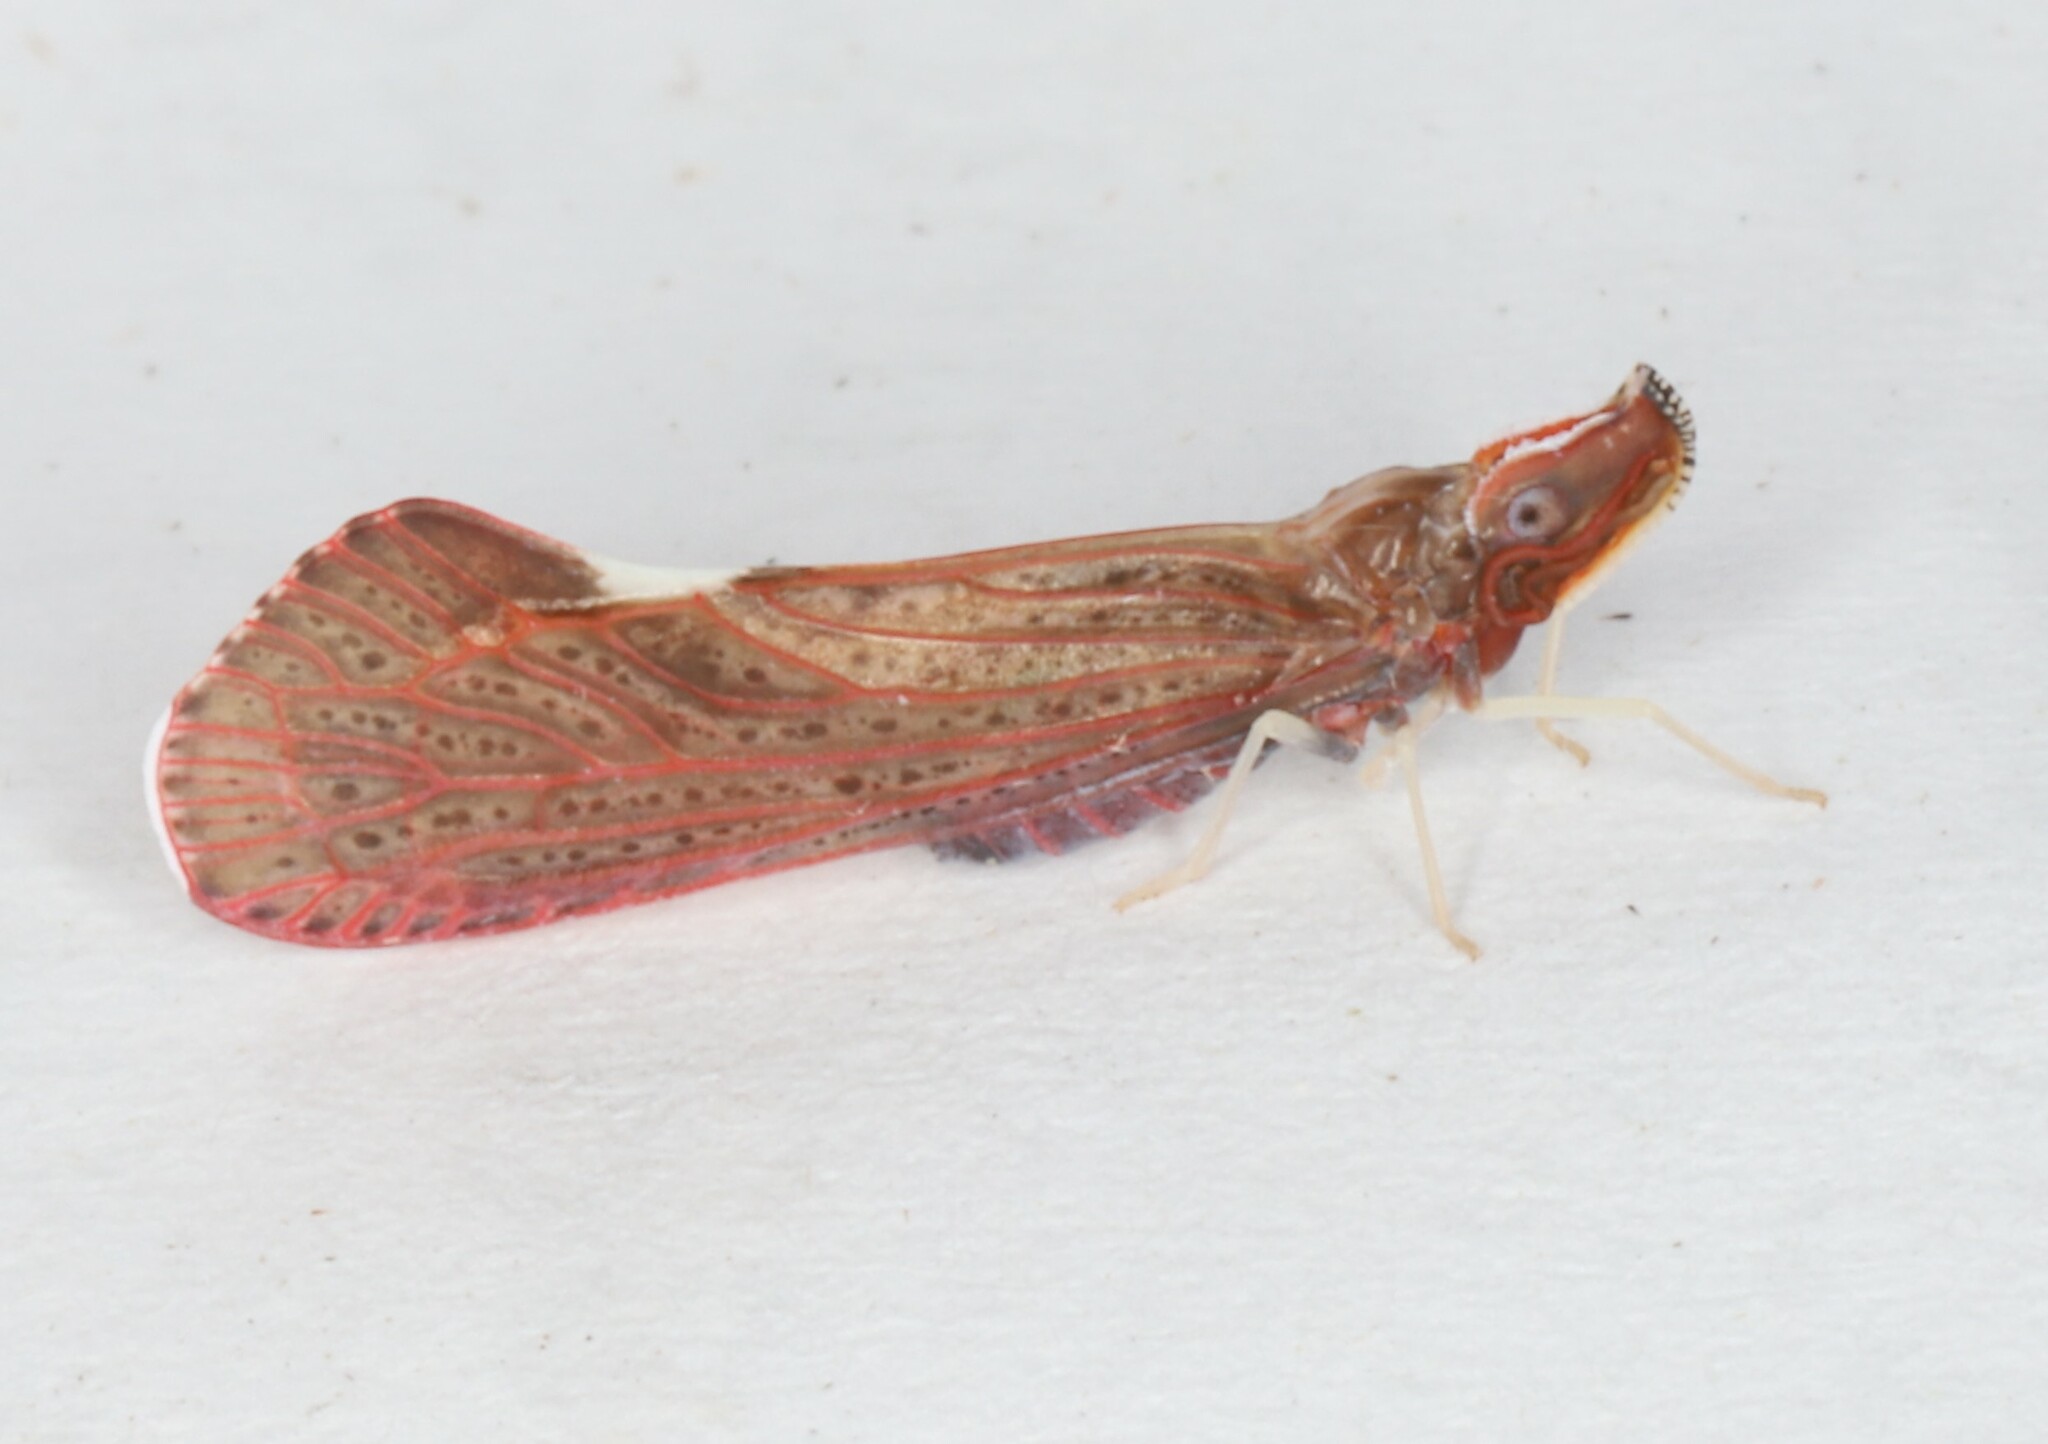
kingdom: Animalia
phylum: Arthropoda
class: Insecta
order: Hemiptera
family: Derbidae
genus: Apache
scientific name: Apache degeeri
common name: Red-fanned planthopper
